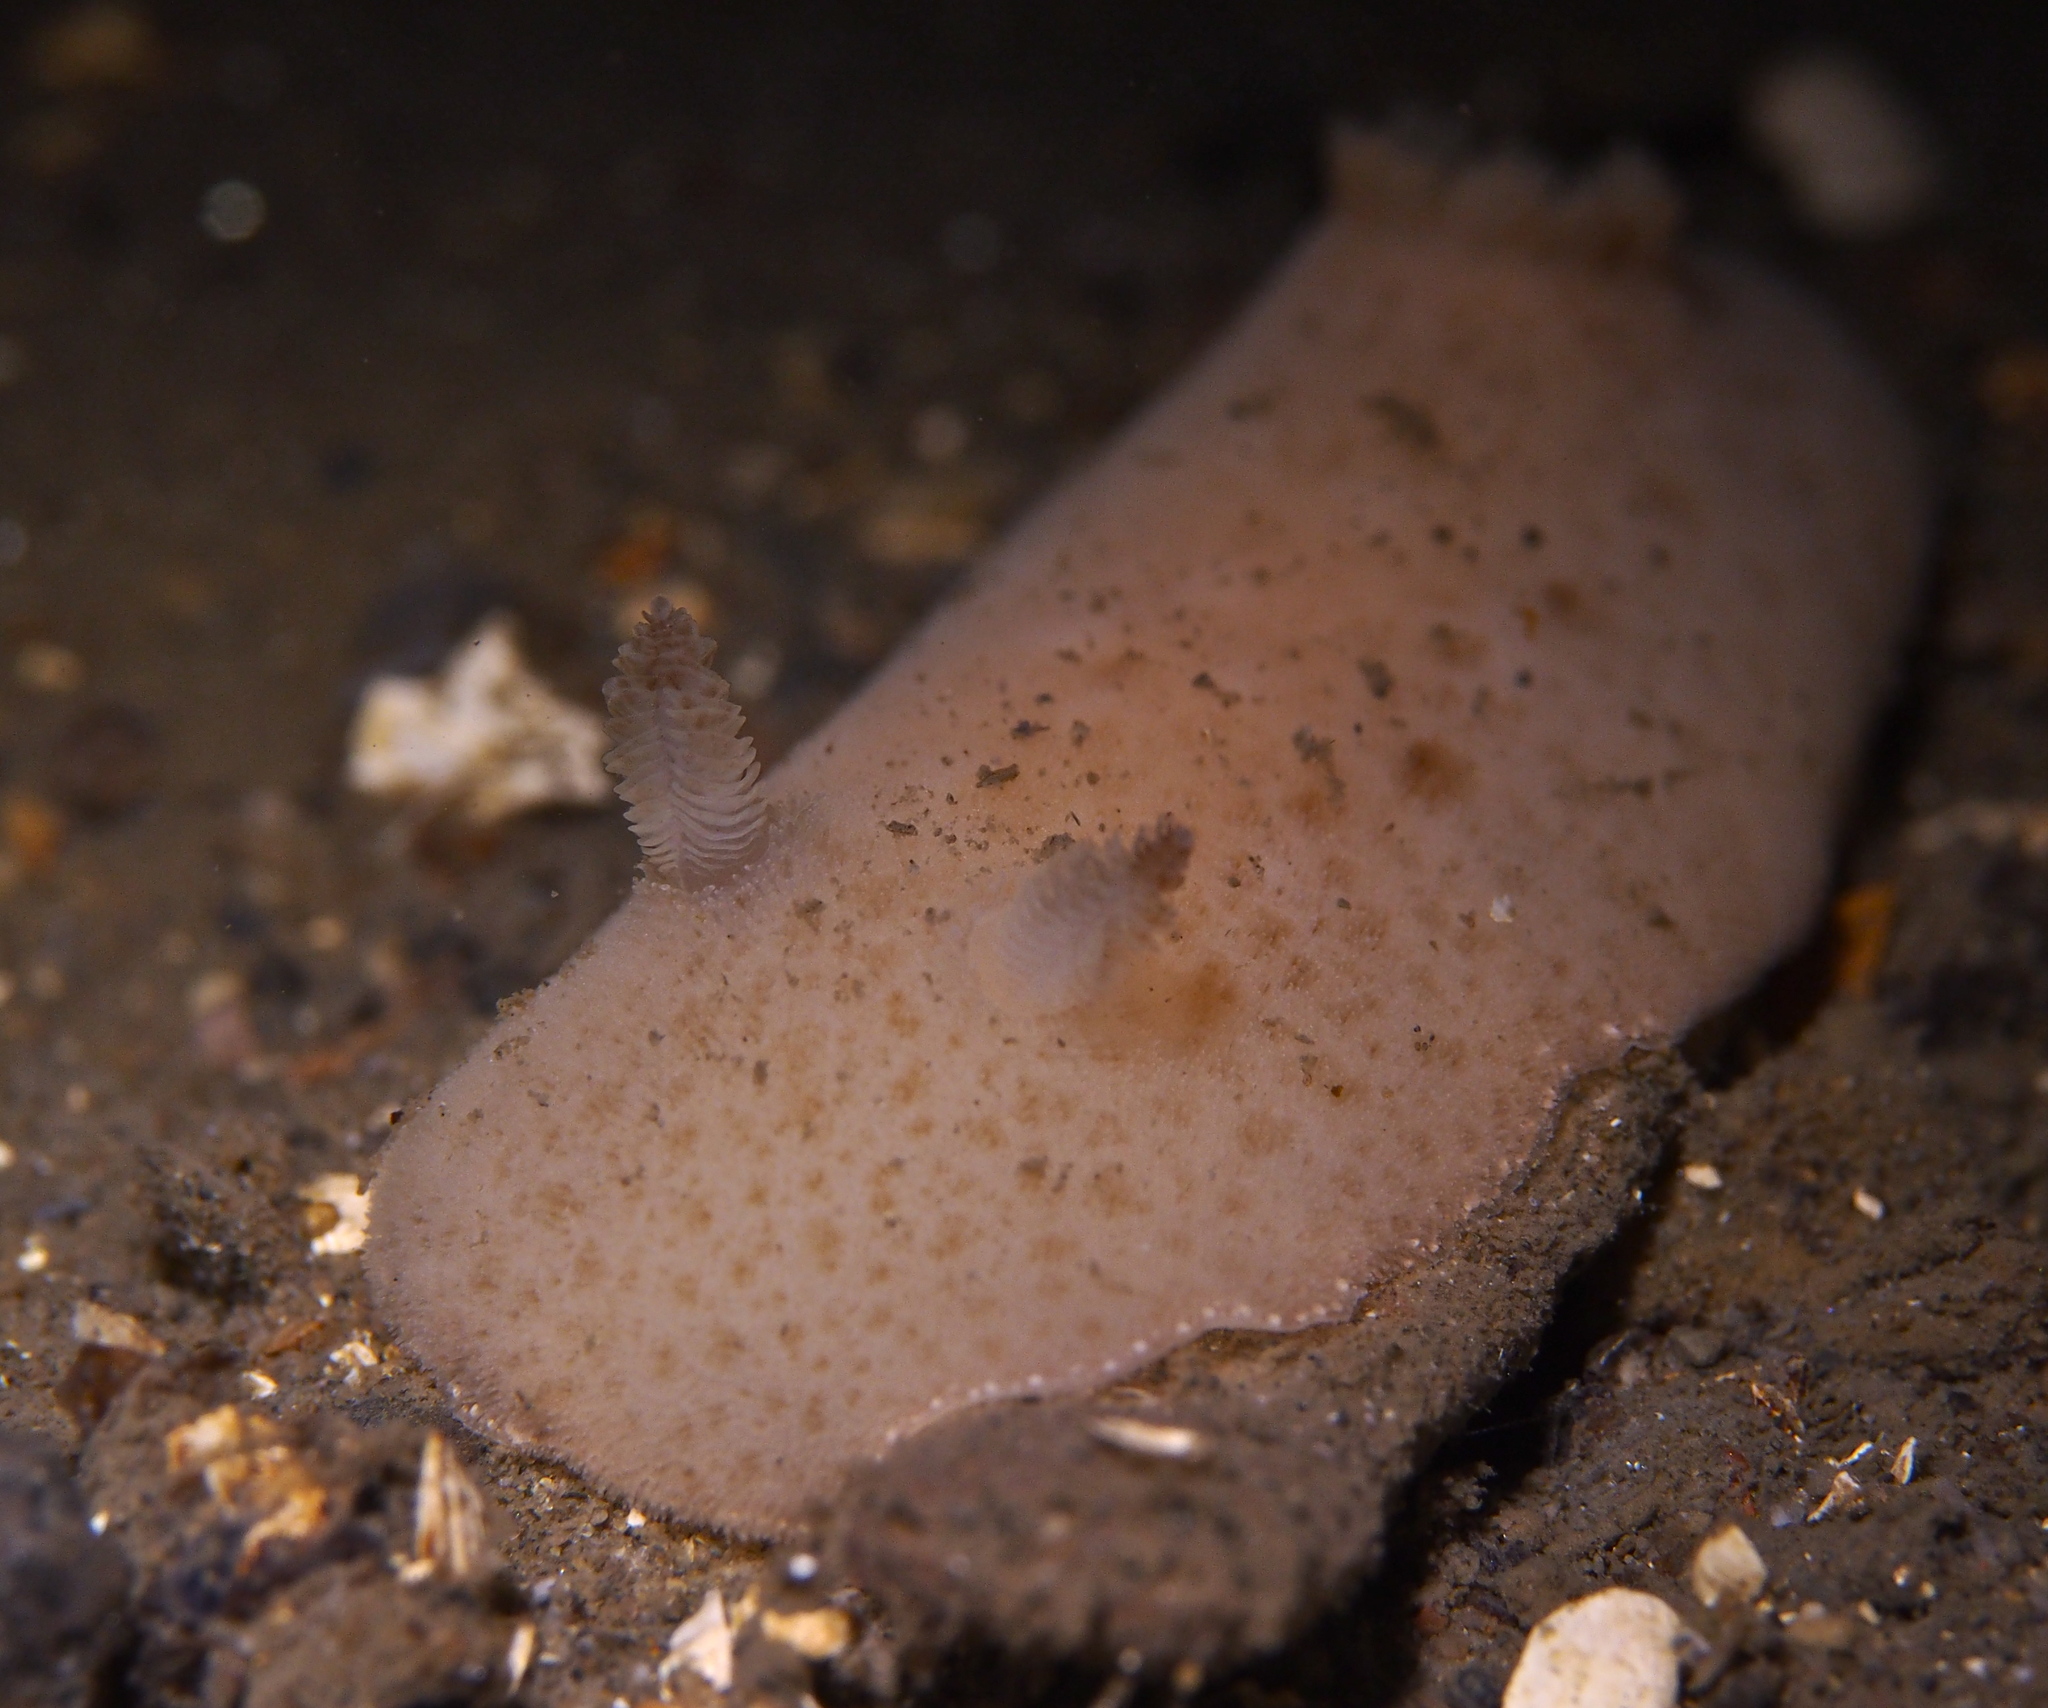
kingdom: Animalia
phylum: Mollusca
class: Gastropoda
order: Nudibranchia
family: Discodorididae
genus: Jorunna
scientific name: Jorunna tomentosa
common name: Grey sea slug
